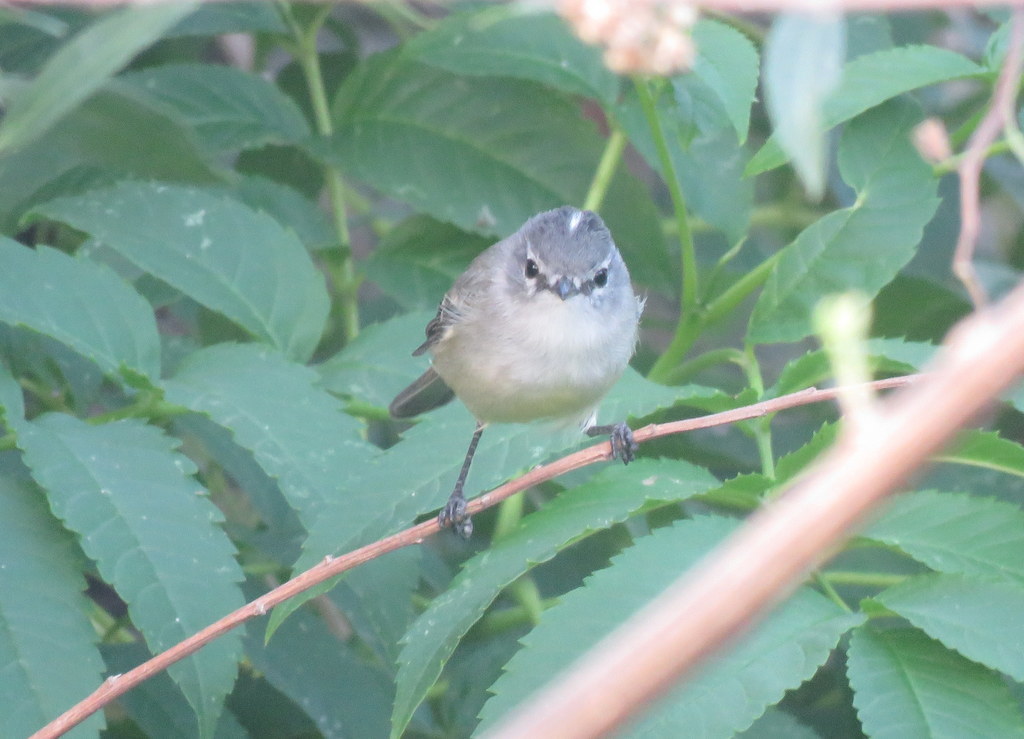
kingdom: Animalia
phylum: Chordata
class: Aves
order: Passeriformes
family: Tyrannidae
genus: Serpophaga
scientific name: Serpophaga subcristata
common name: White-crested tyrannulet
